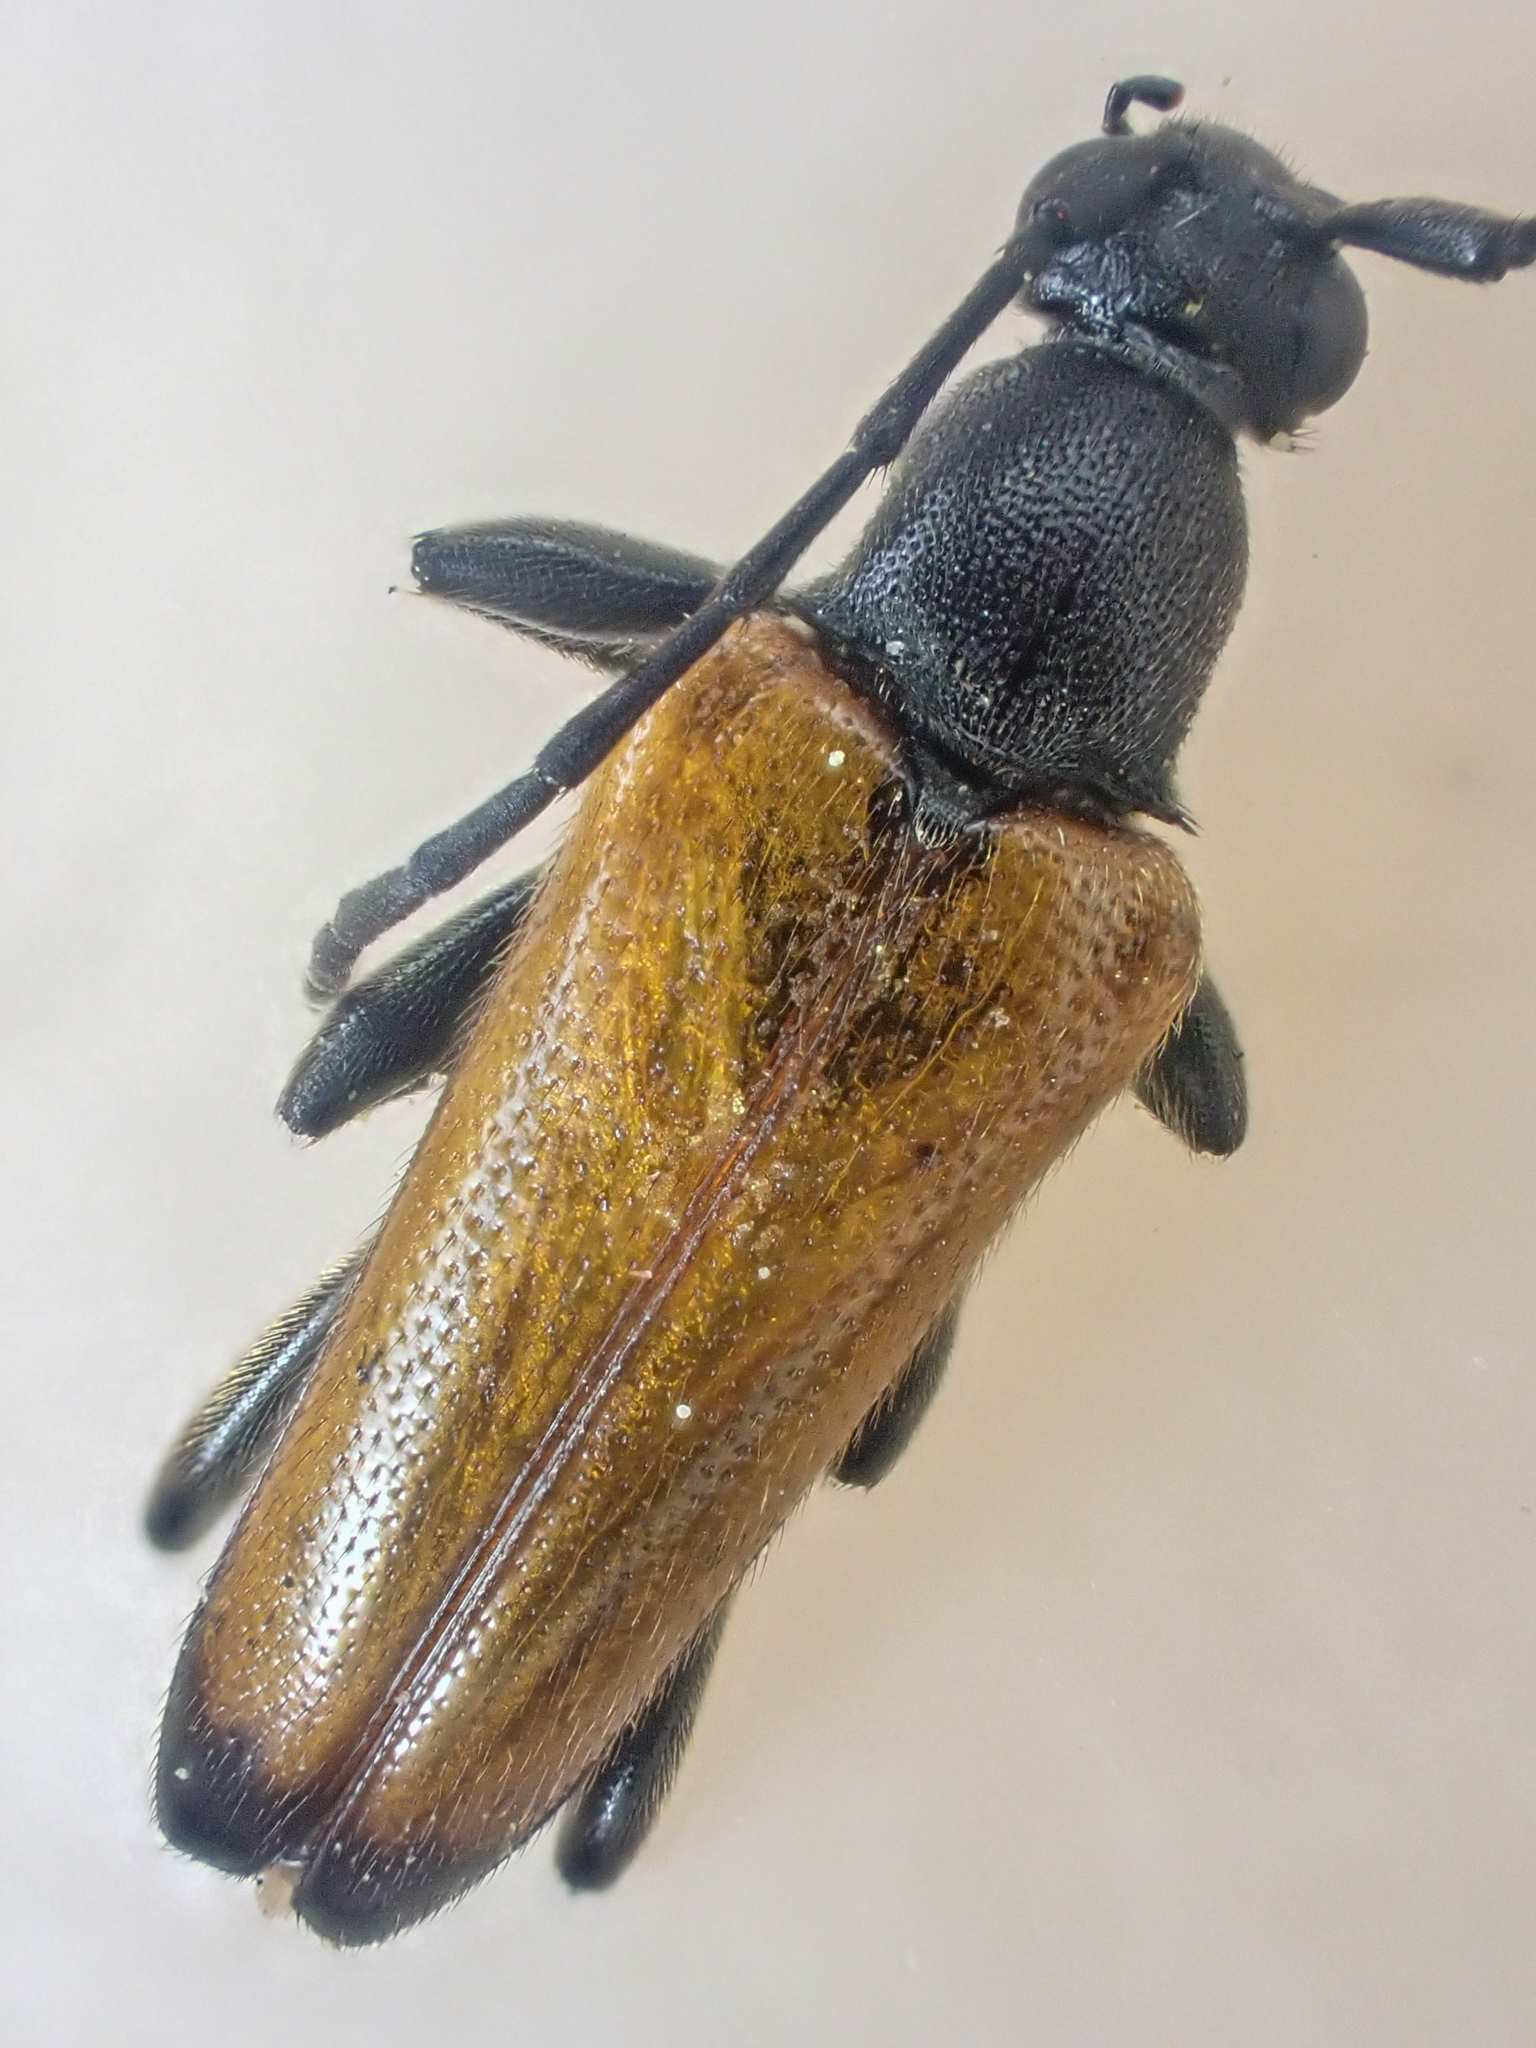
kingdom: Animalia
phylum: Arthropoda
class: Insecta
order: Coleoptera
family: Cerambycidae
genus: Neoalosterna
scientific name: Neoalosterna rubida
